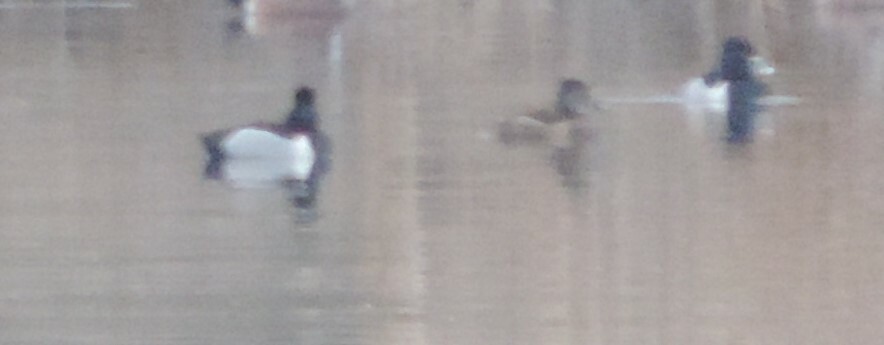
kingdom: Animalia
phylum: Chordata
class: Aves
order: Anseriformes
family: Anatidae
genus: Aythya
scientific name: Aythya collaris
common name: Ring-necked duck
